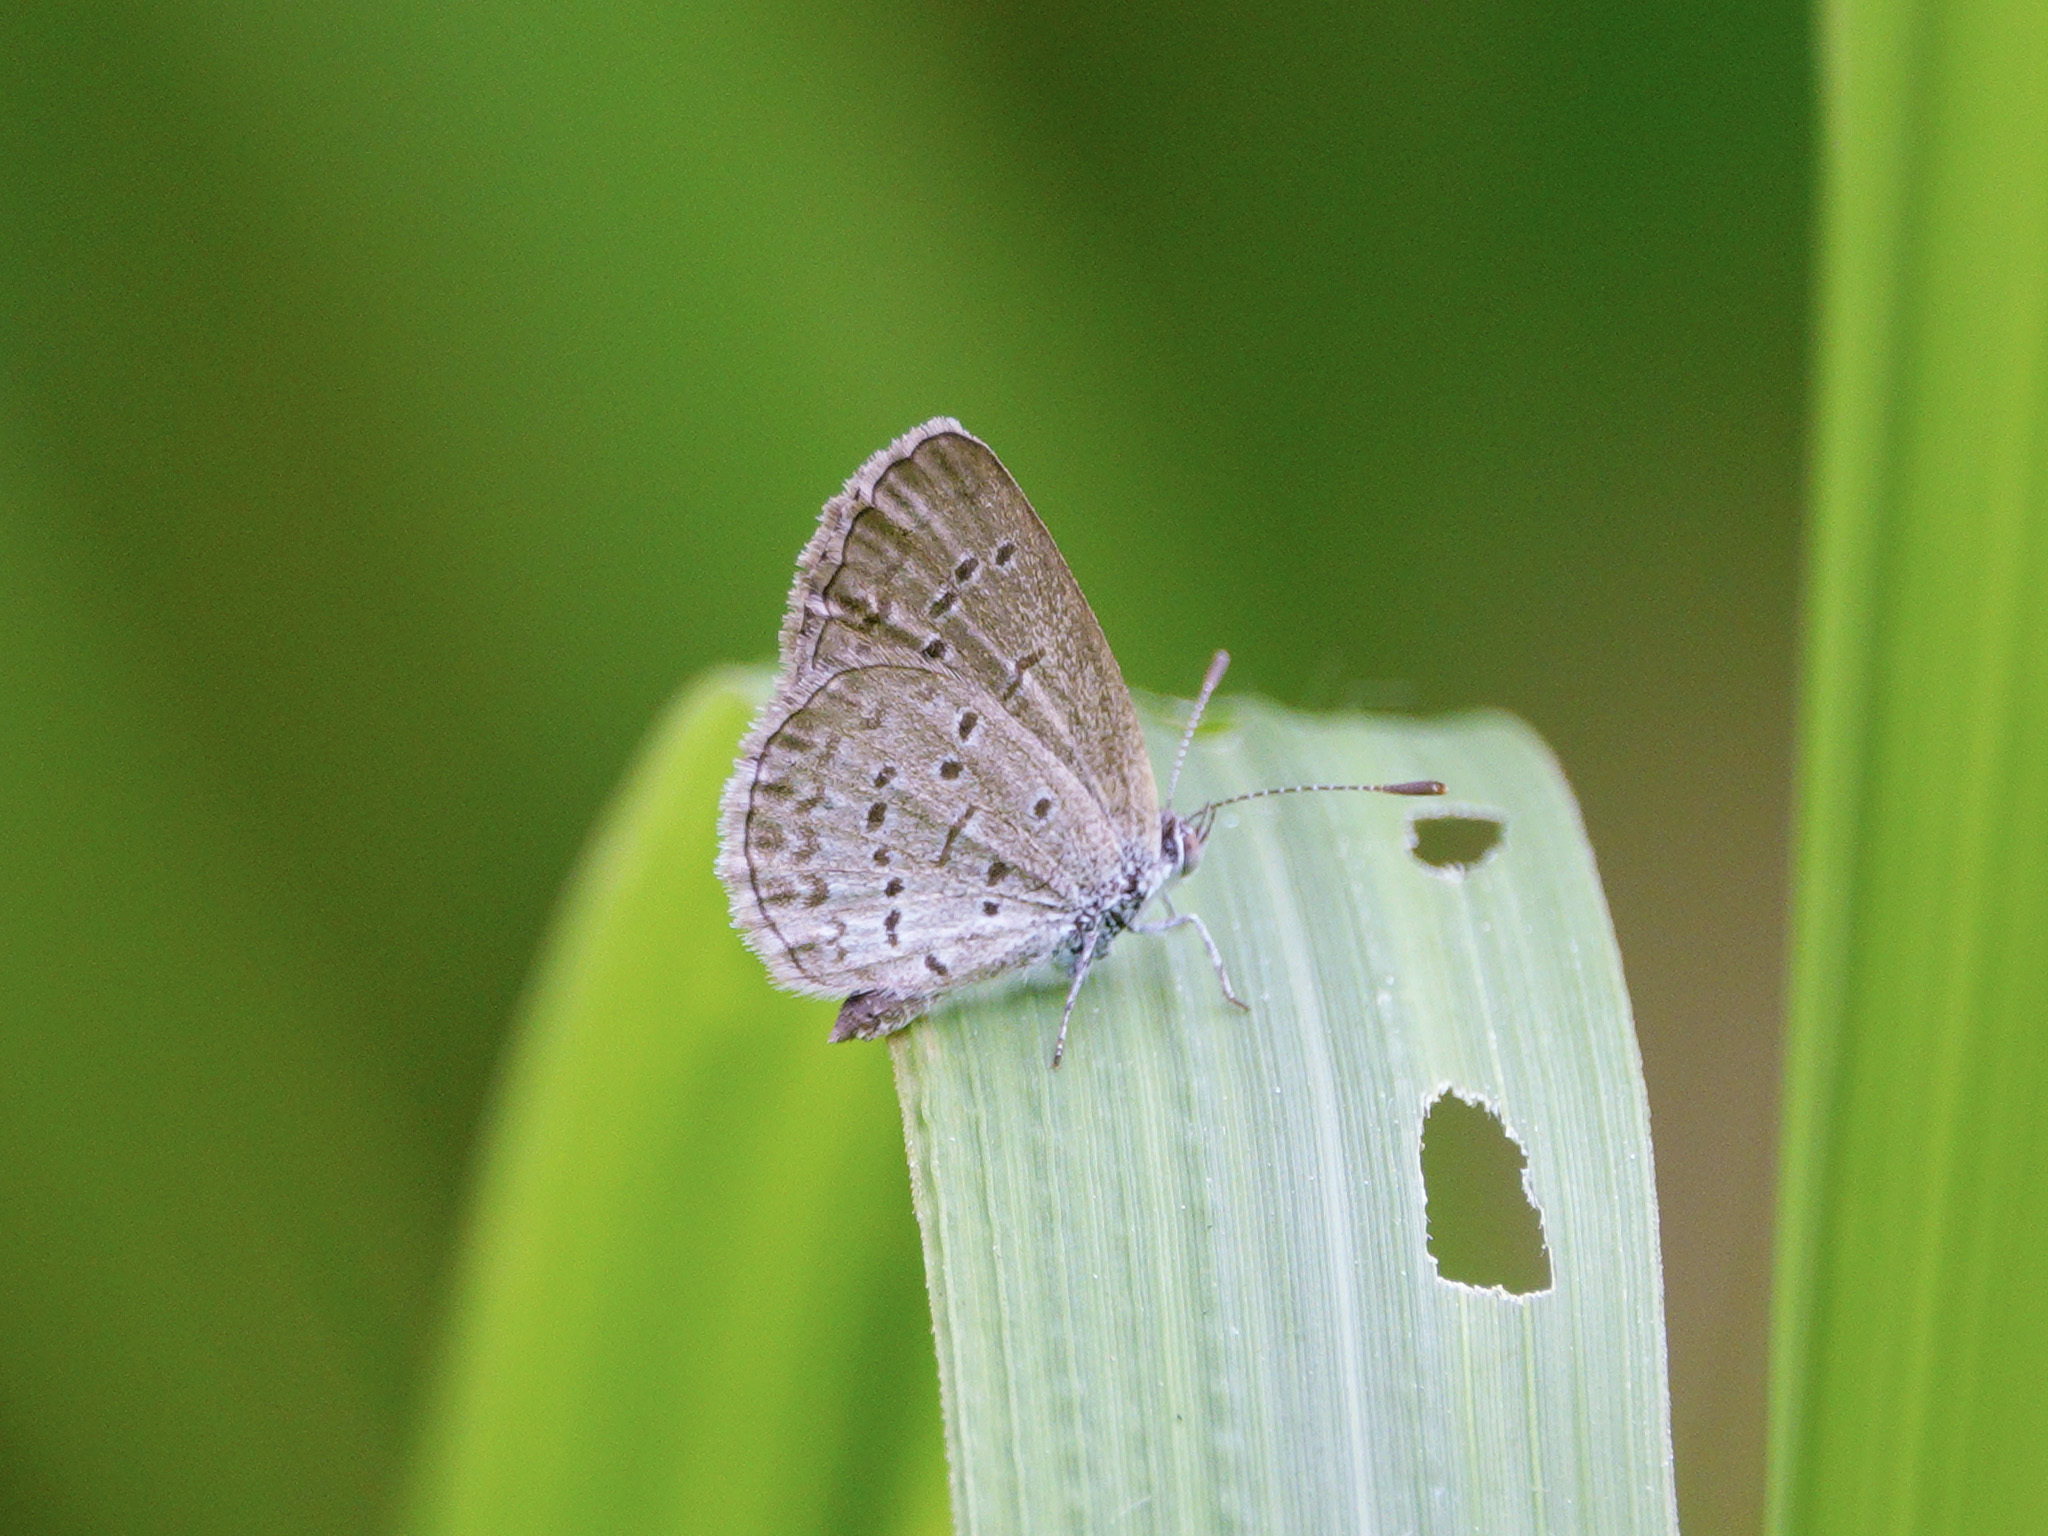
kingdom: Animalia
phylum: Arthropoda
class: Insecta
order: Lepidoptera
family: Lycaenidae
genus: Zizina
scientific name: Zizina otis
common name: Lesser grass blue
